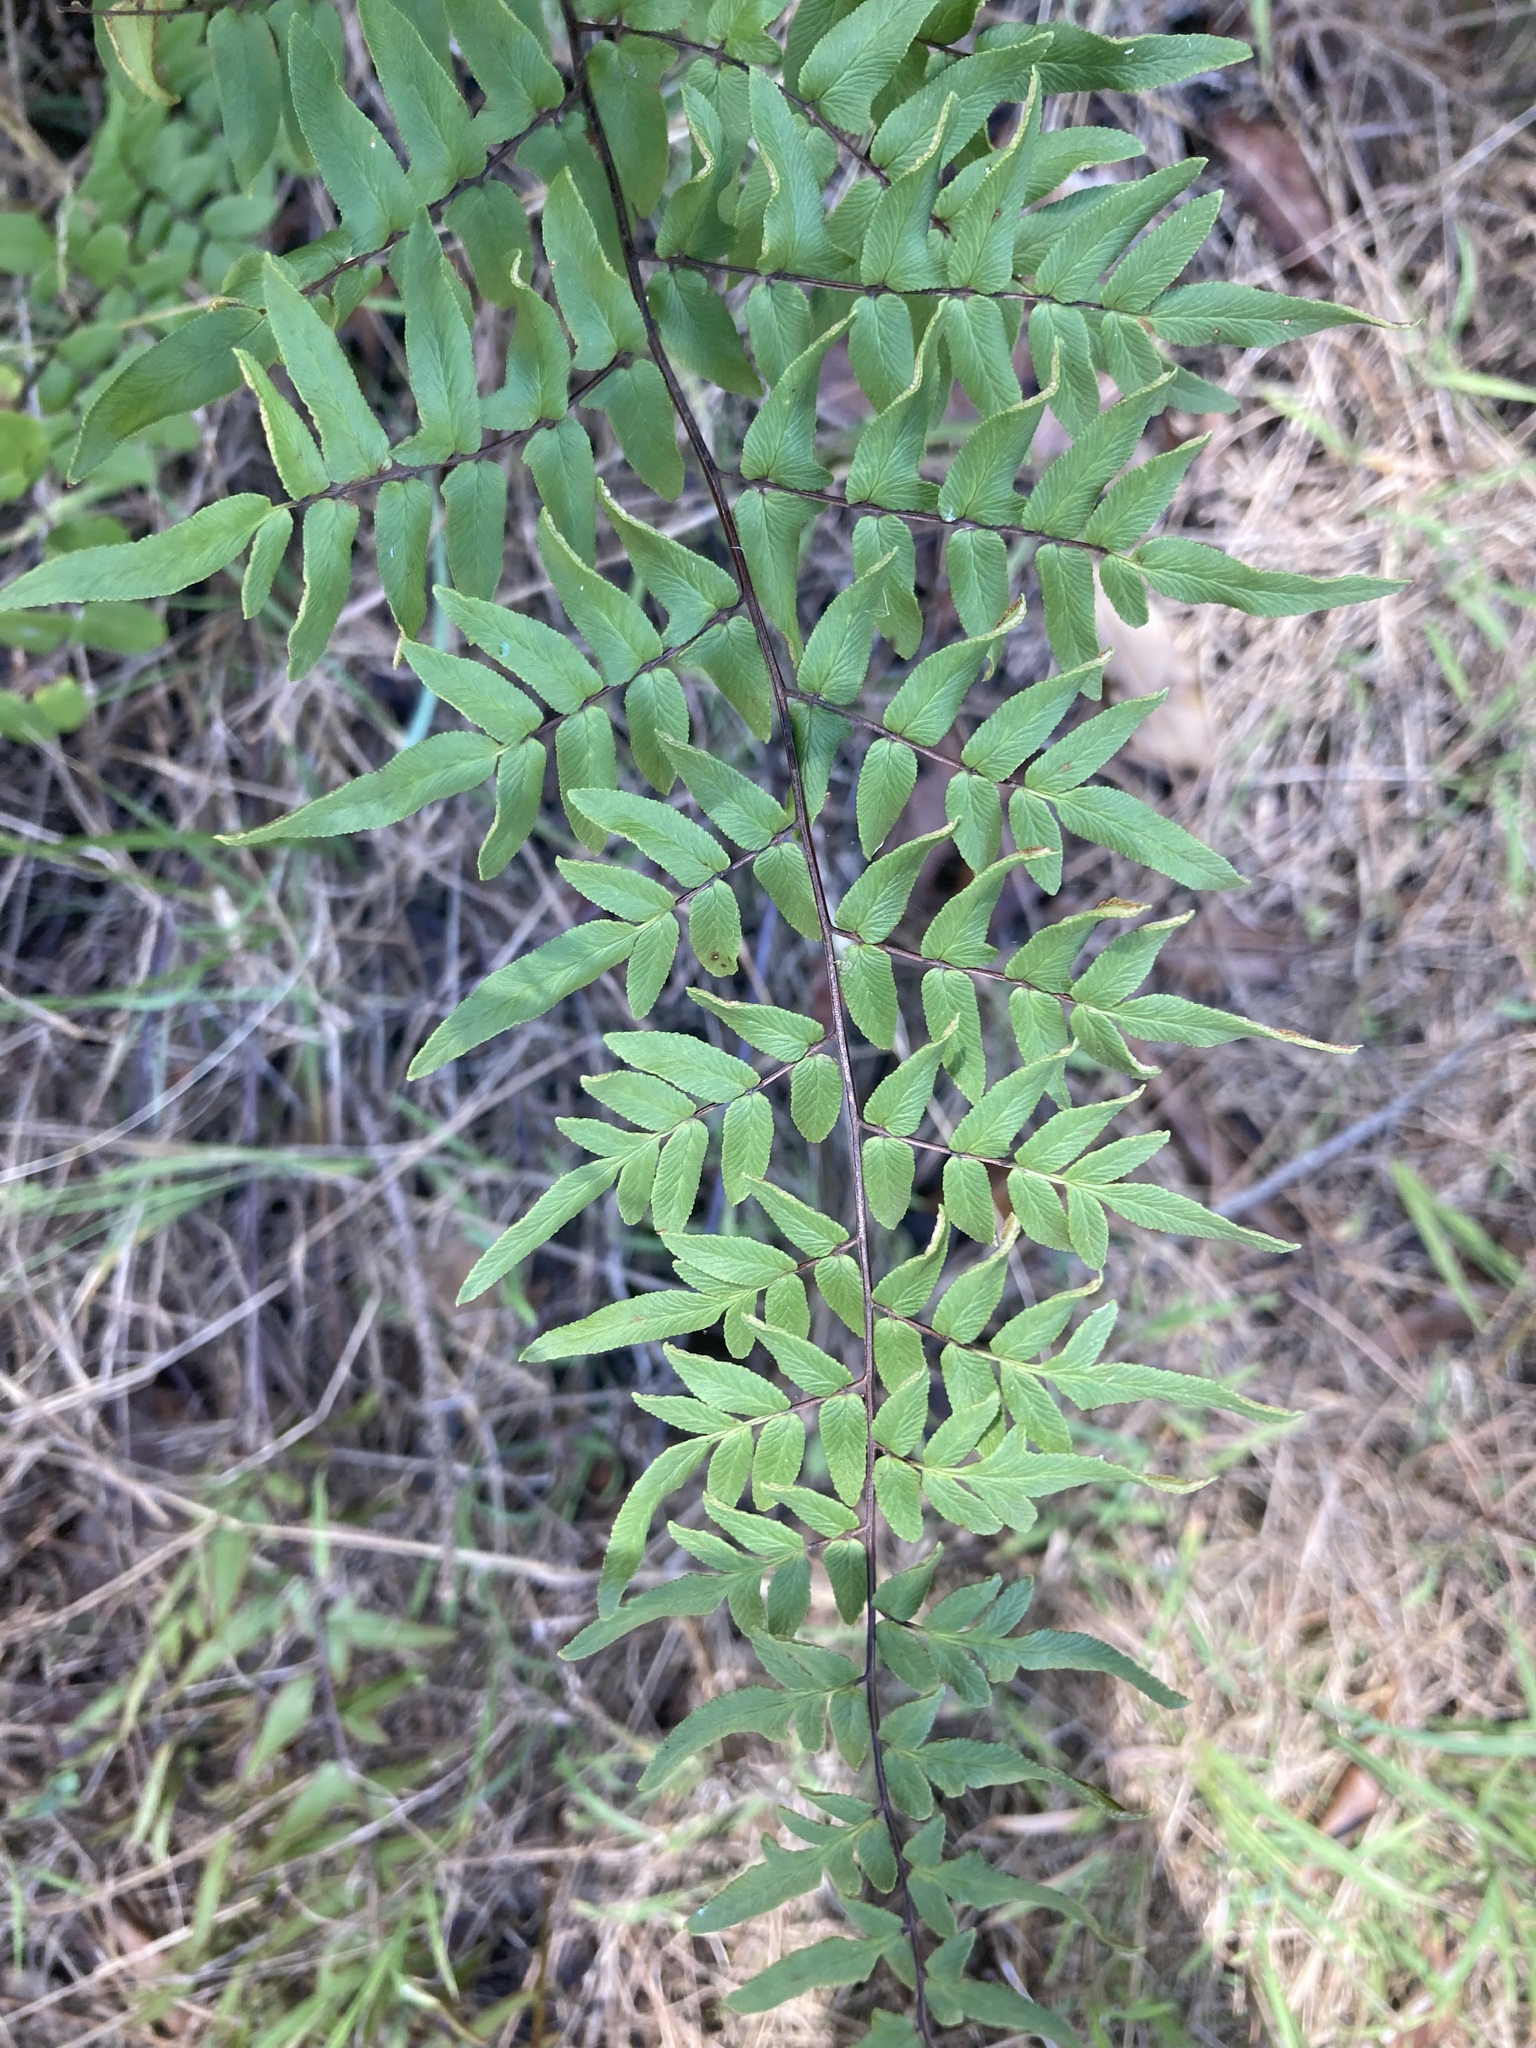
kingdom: Plantae
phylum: Tracheophyta
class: Polypodiopsida
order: Polypodiales
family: Pteridaceae
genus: Cheilanthes
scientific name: Cheilanthes viridis
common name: Green cliffbrake
